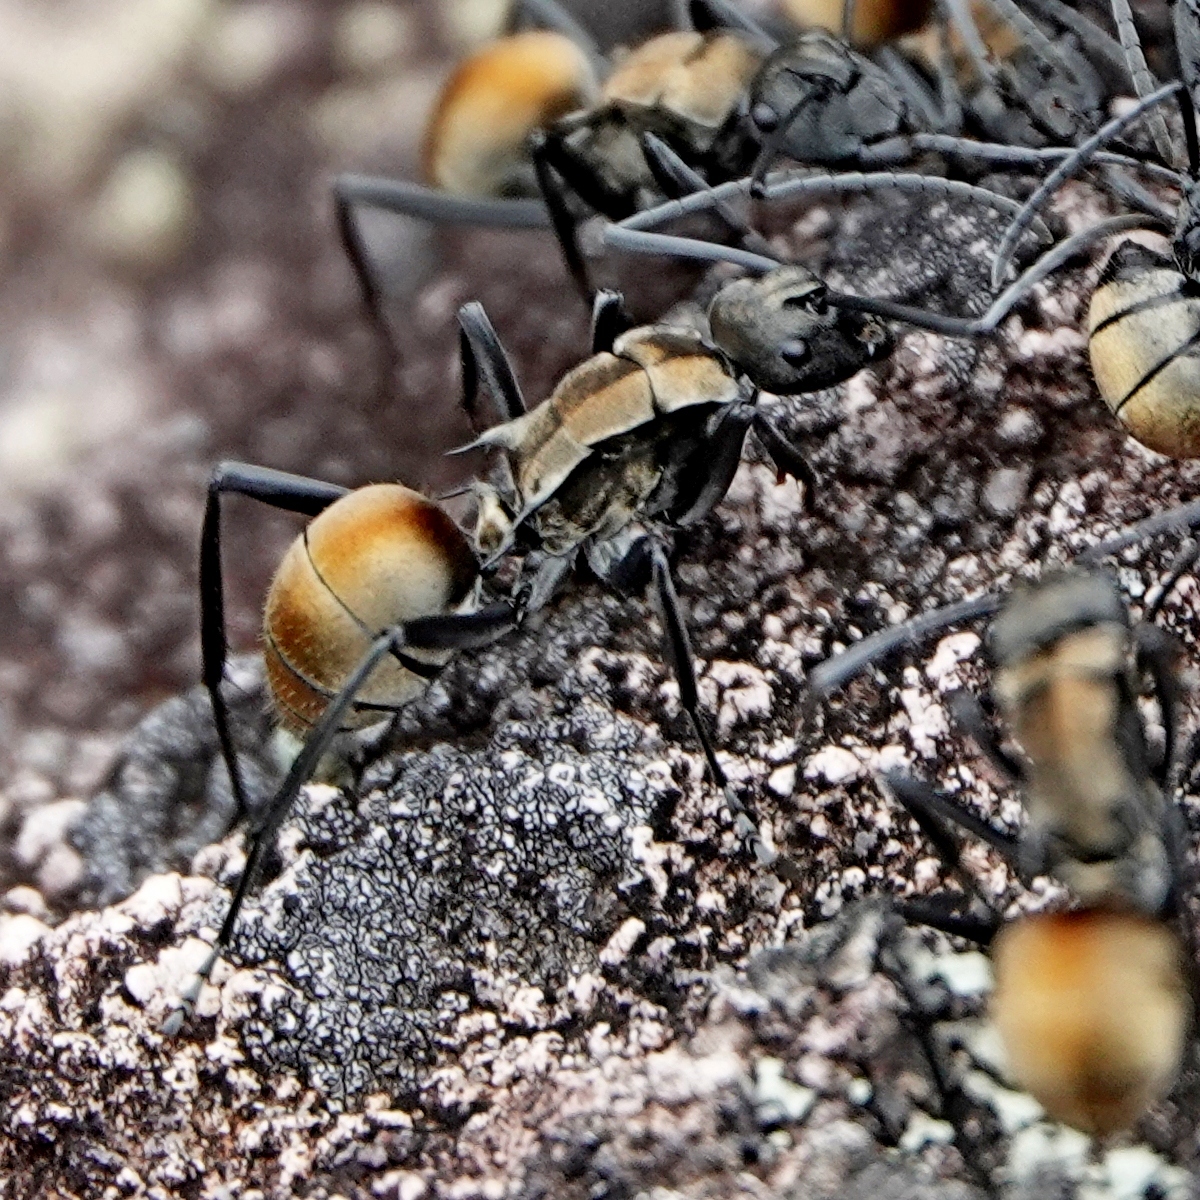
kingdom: Animalia
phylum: Arthropoda
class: Insecta
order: Hymenoptera
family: Formicidae
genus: Polyrhachis
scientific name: Polyrhachis ammon
